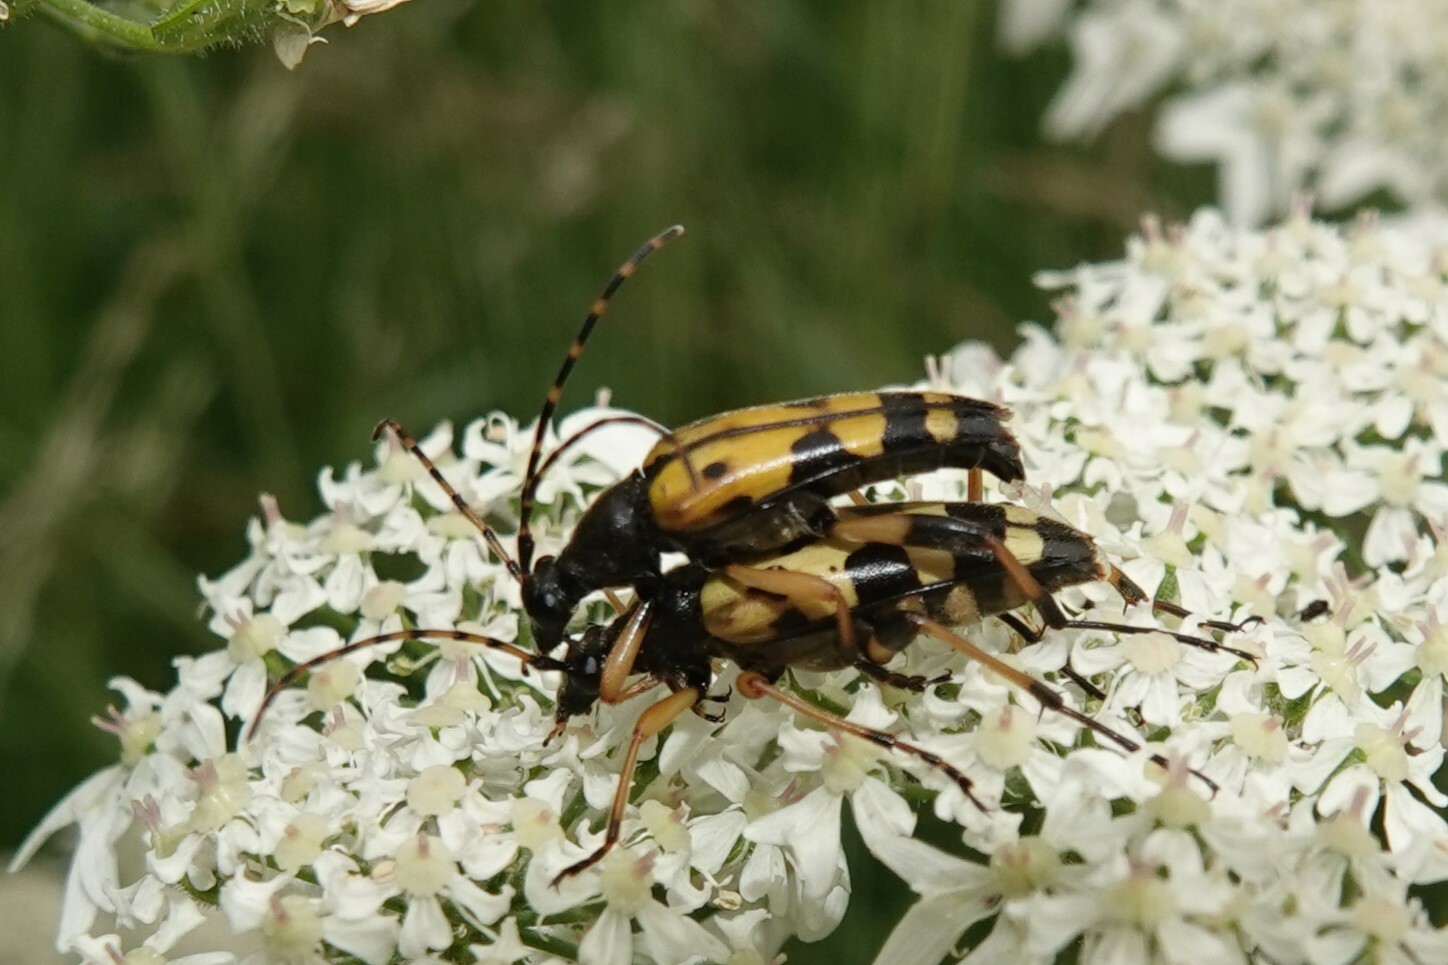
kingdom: Animalia
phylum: Arthropoda
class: Insecta
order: Coleoptera
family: Cerambycidae
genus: Rutpela
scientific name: Rutpela maculata
